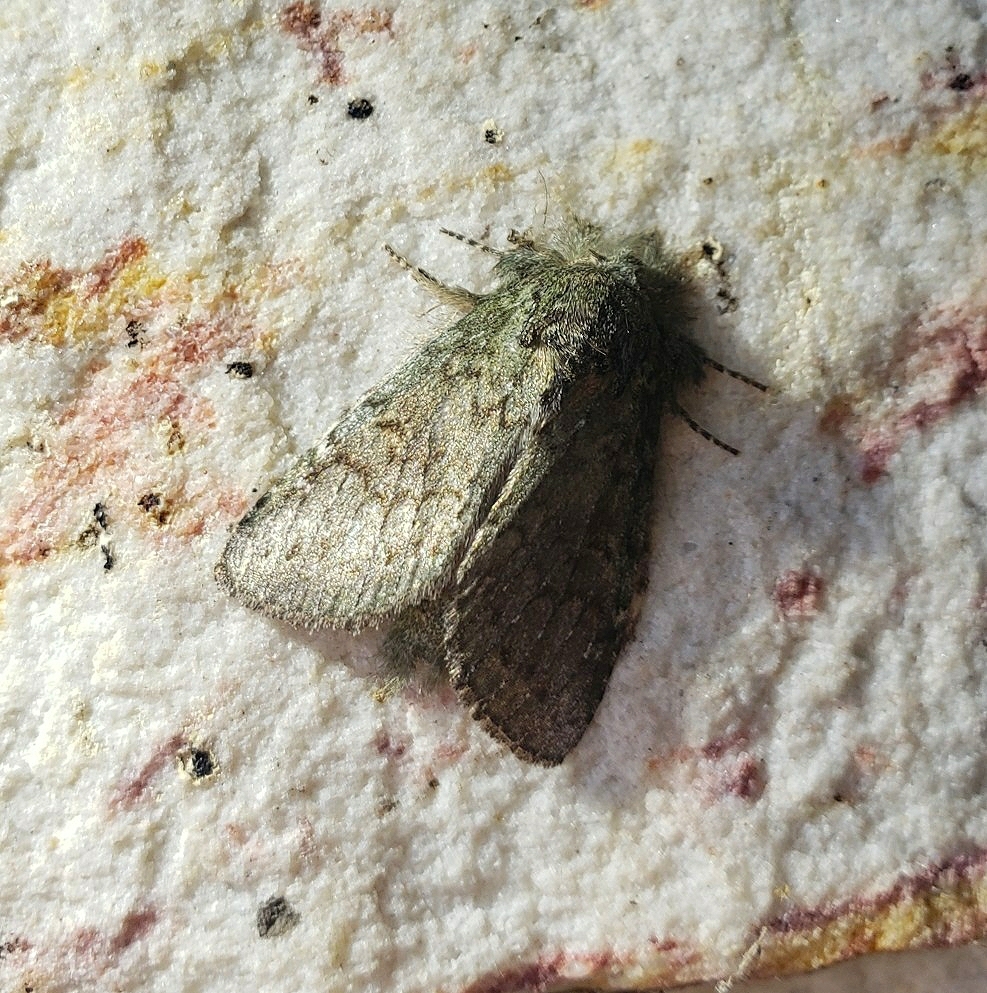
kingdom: Animalia
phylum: Arthropoda
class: Insecta
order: Lepidoptera
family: Notodontidae
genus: Disphragis
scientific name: Disphragis Cecrita guttivitta
